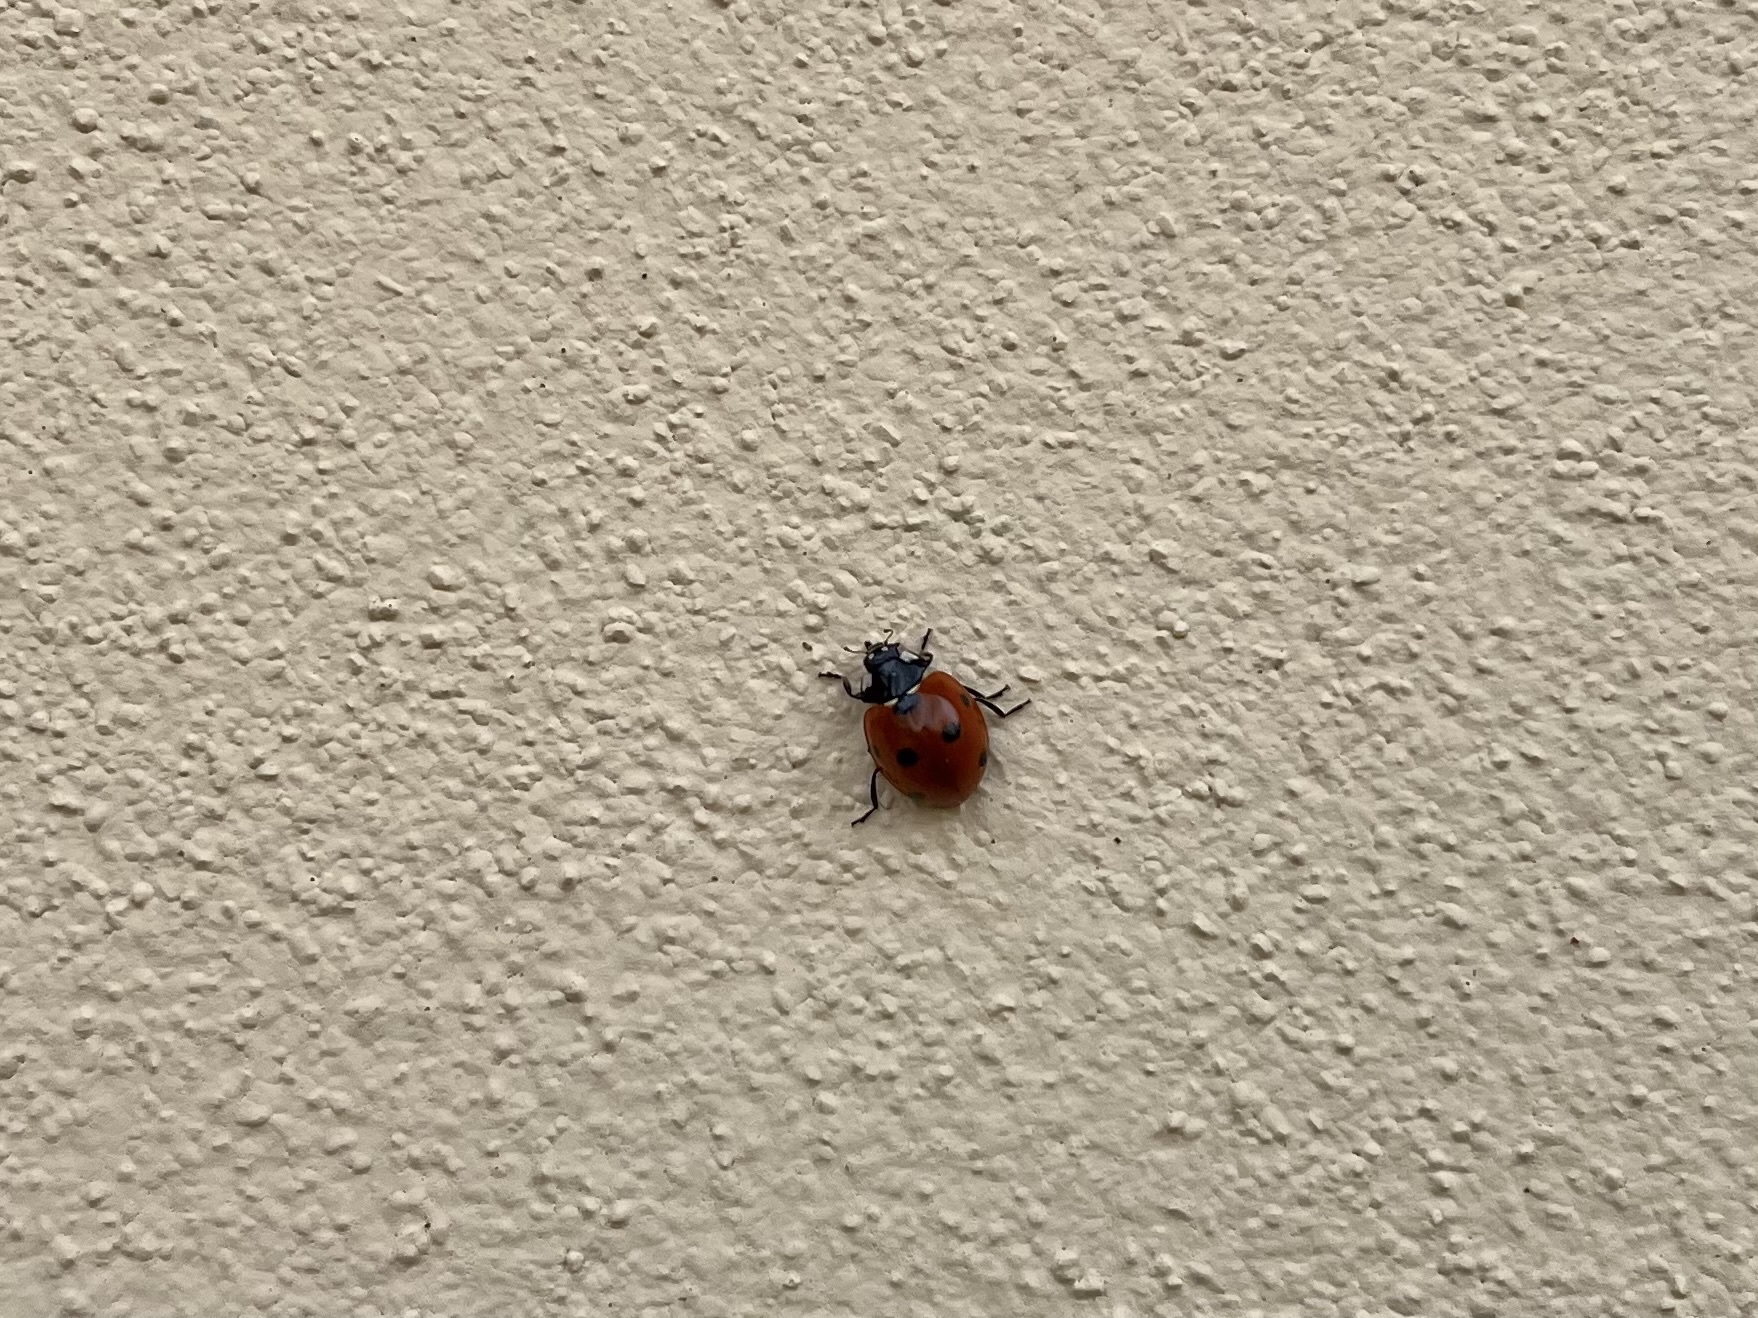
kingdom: Animalia
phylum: Arthropoda
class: Insecta
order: Coleoptera
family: Coccinellidae
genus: Coccinella
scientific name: Coccinella septempunctata
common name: Sevenspotted lady beetle
